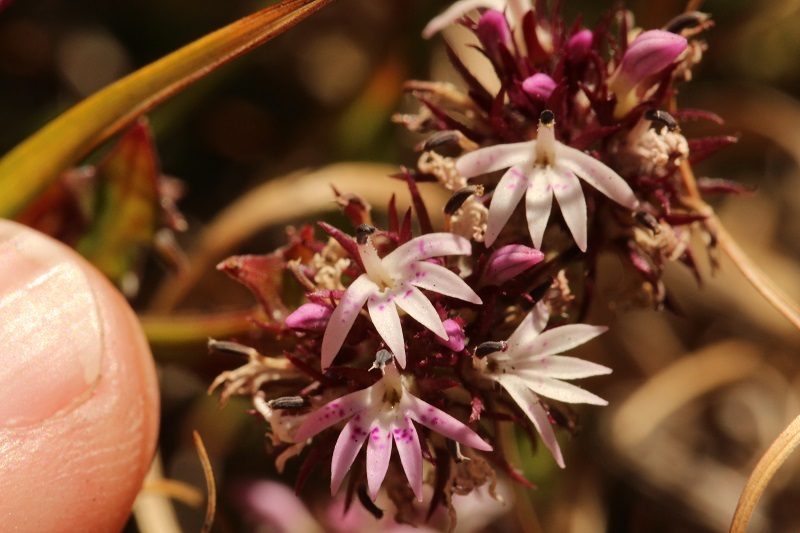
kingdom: Plantae
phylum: Tracheophyta
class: Magnoliopsida
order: Asterales
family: Campanulaceae
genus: Lobelia
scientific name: Lobelia jasionoides
